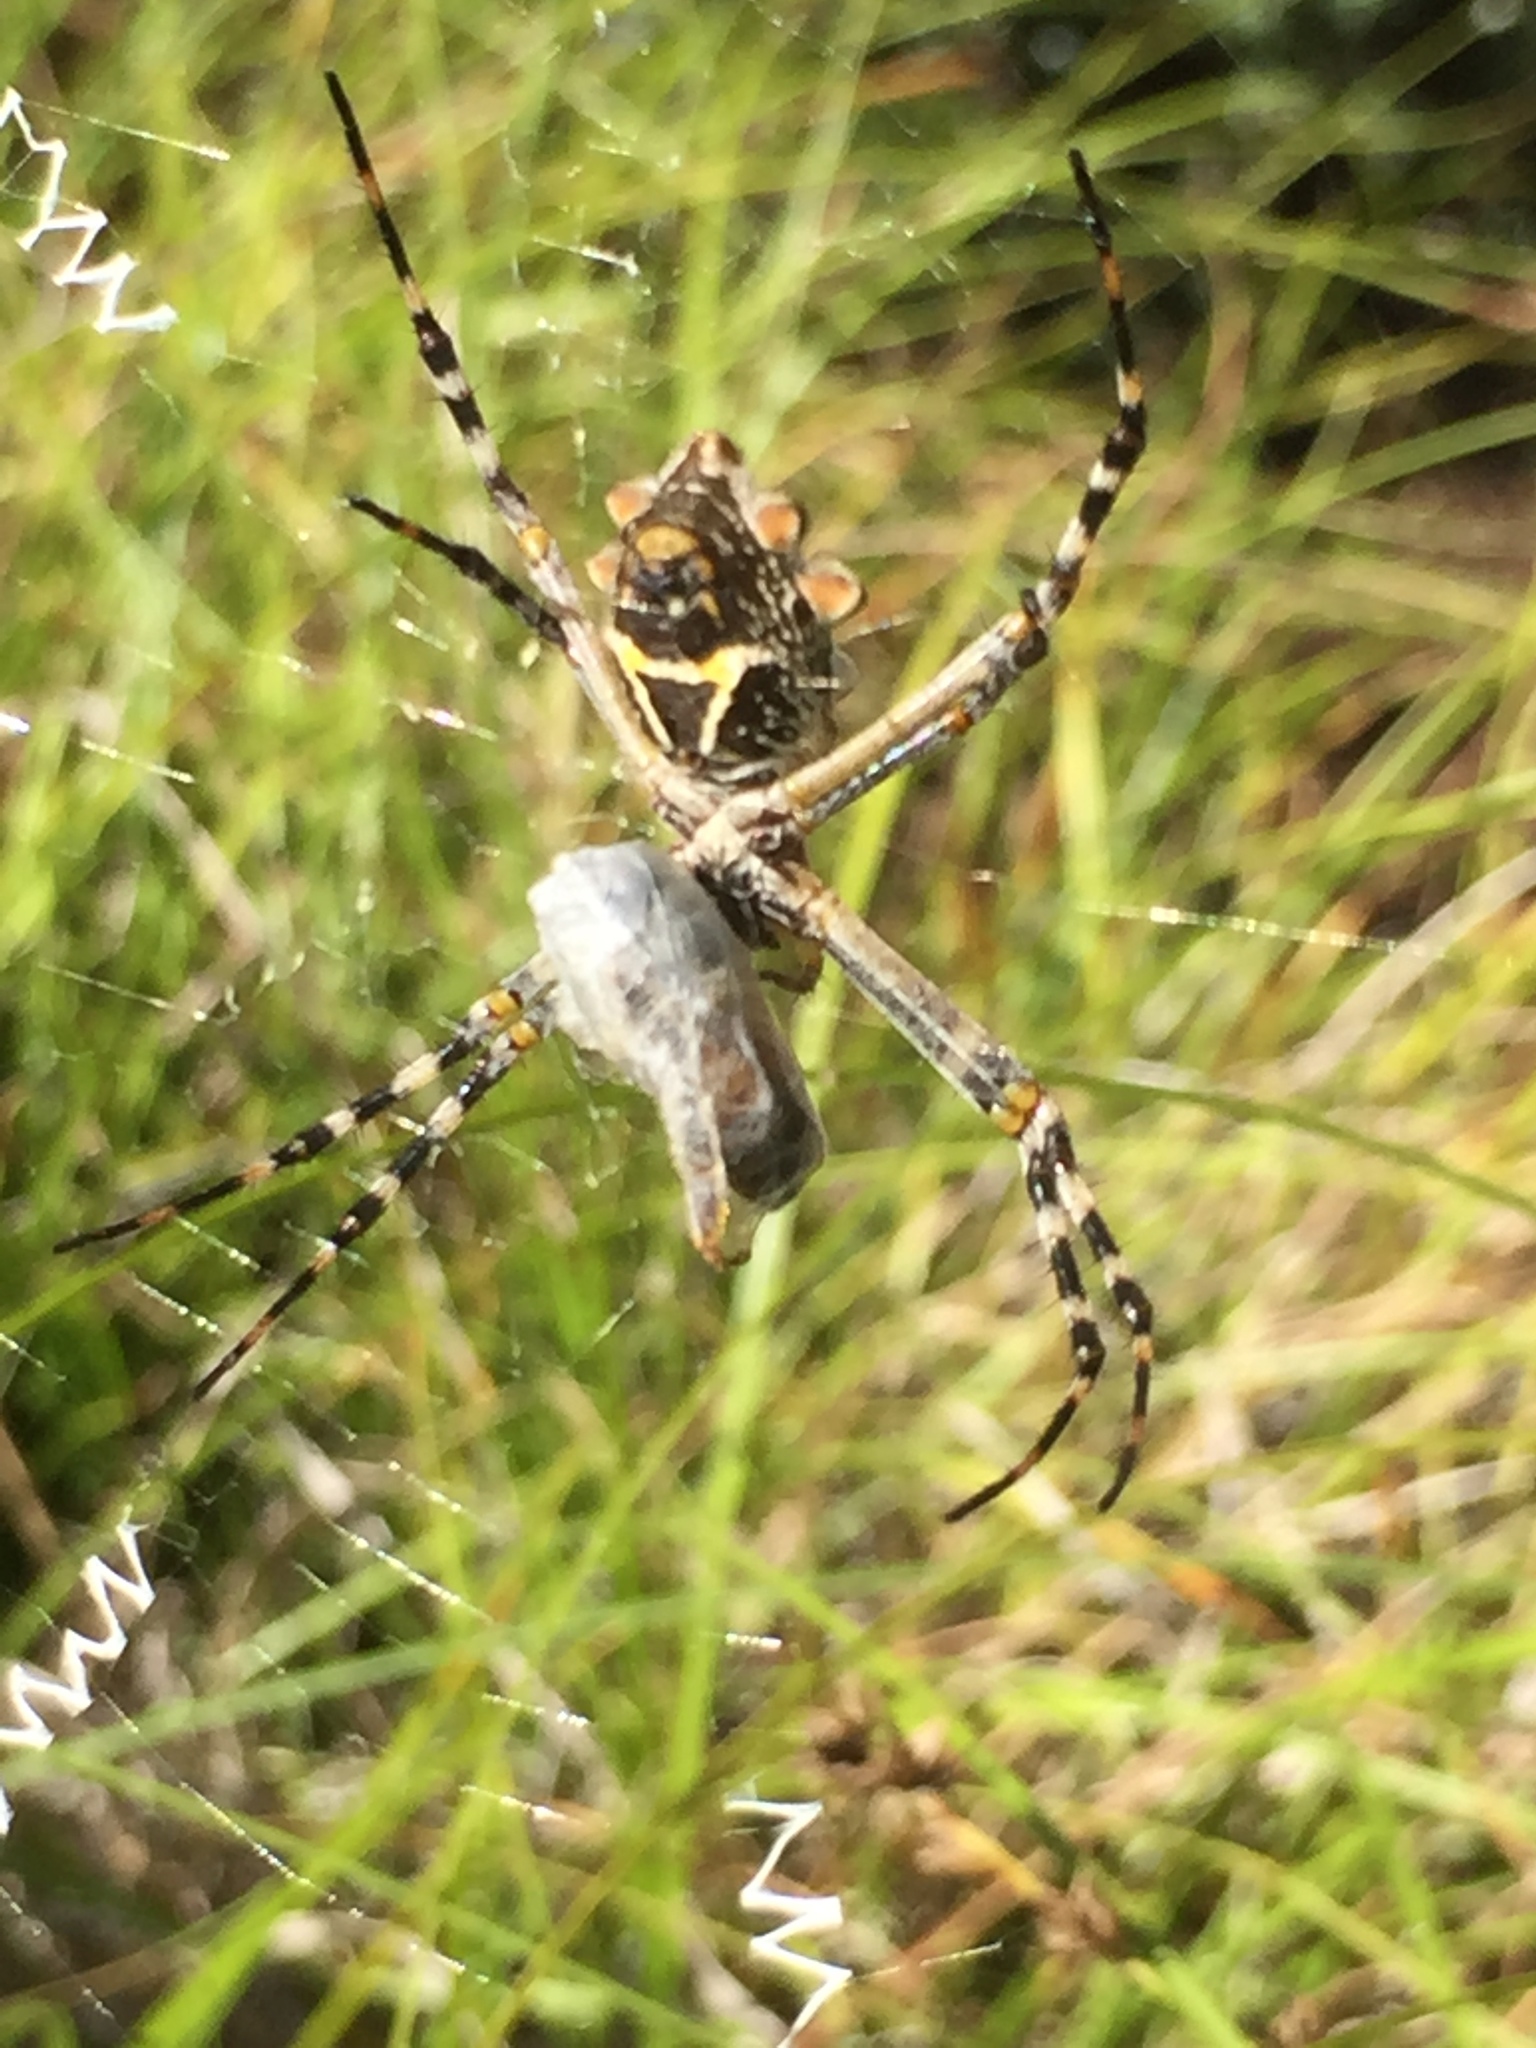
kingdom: Animalia
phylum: Arthropoda
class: Arachnida
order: Araneae
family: Araneidae
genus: Argiope
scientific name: Argiope argentata
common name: Orb weavers
